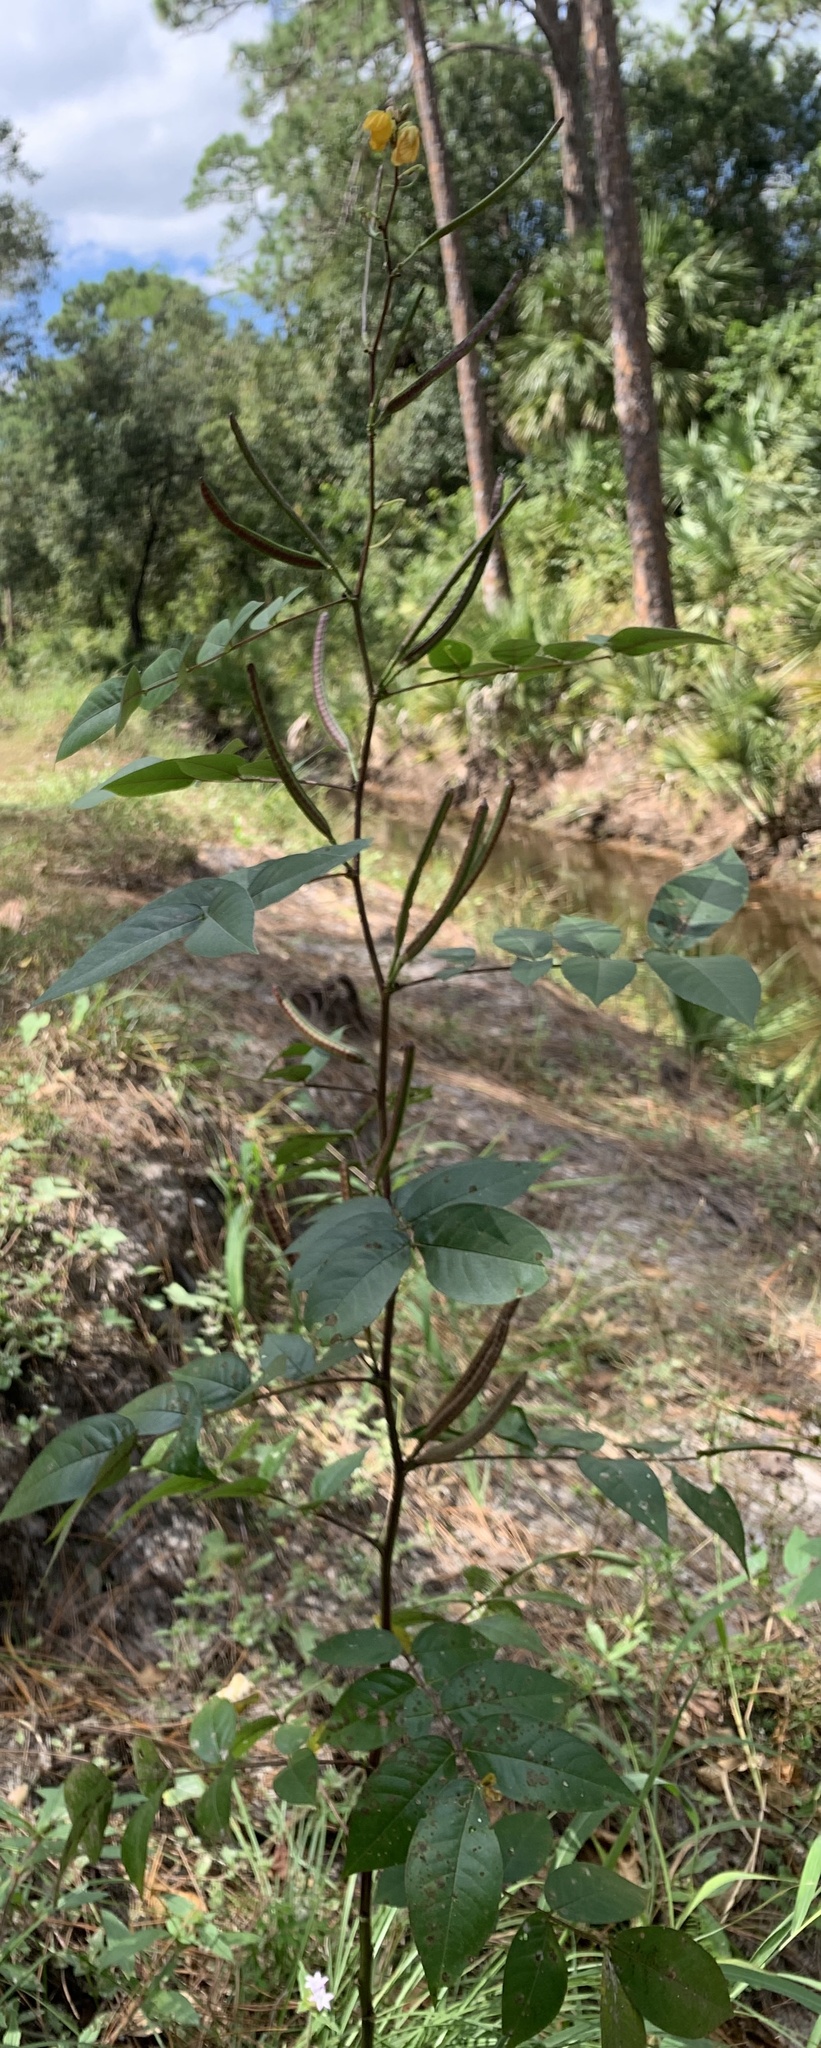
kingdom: Plantae
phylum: Tracheophyta
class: Magnoliopsida
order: Fabales
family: Fabaceae
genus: Senna
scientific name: Senna occidentalis
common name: Septicweed
